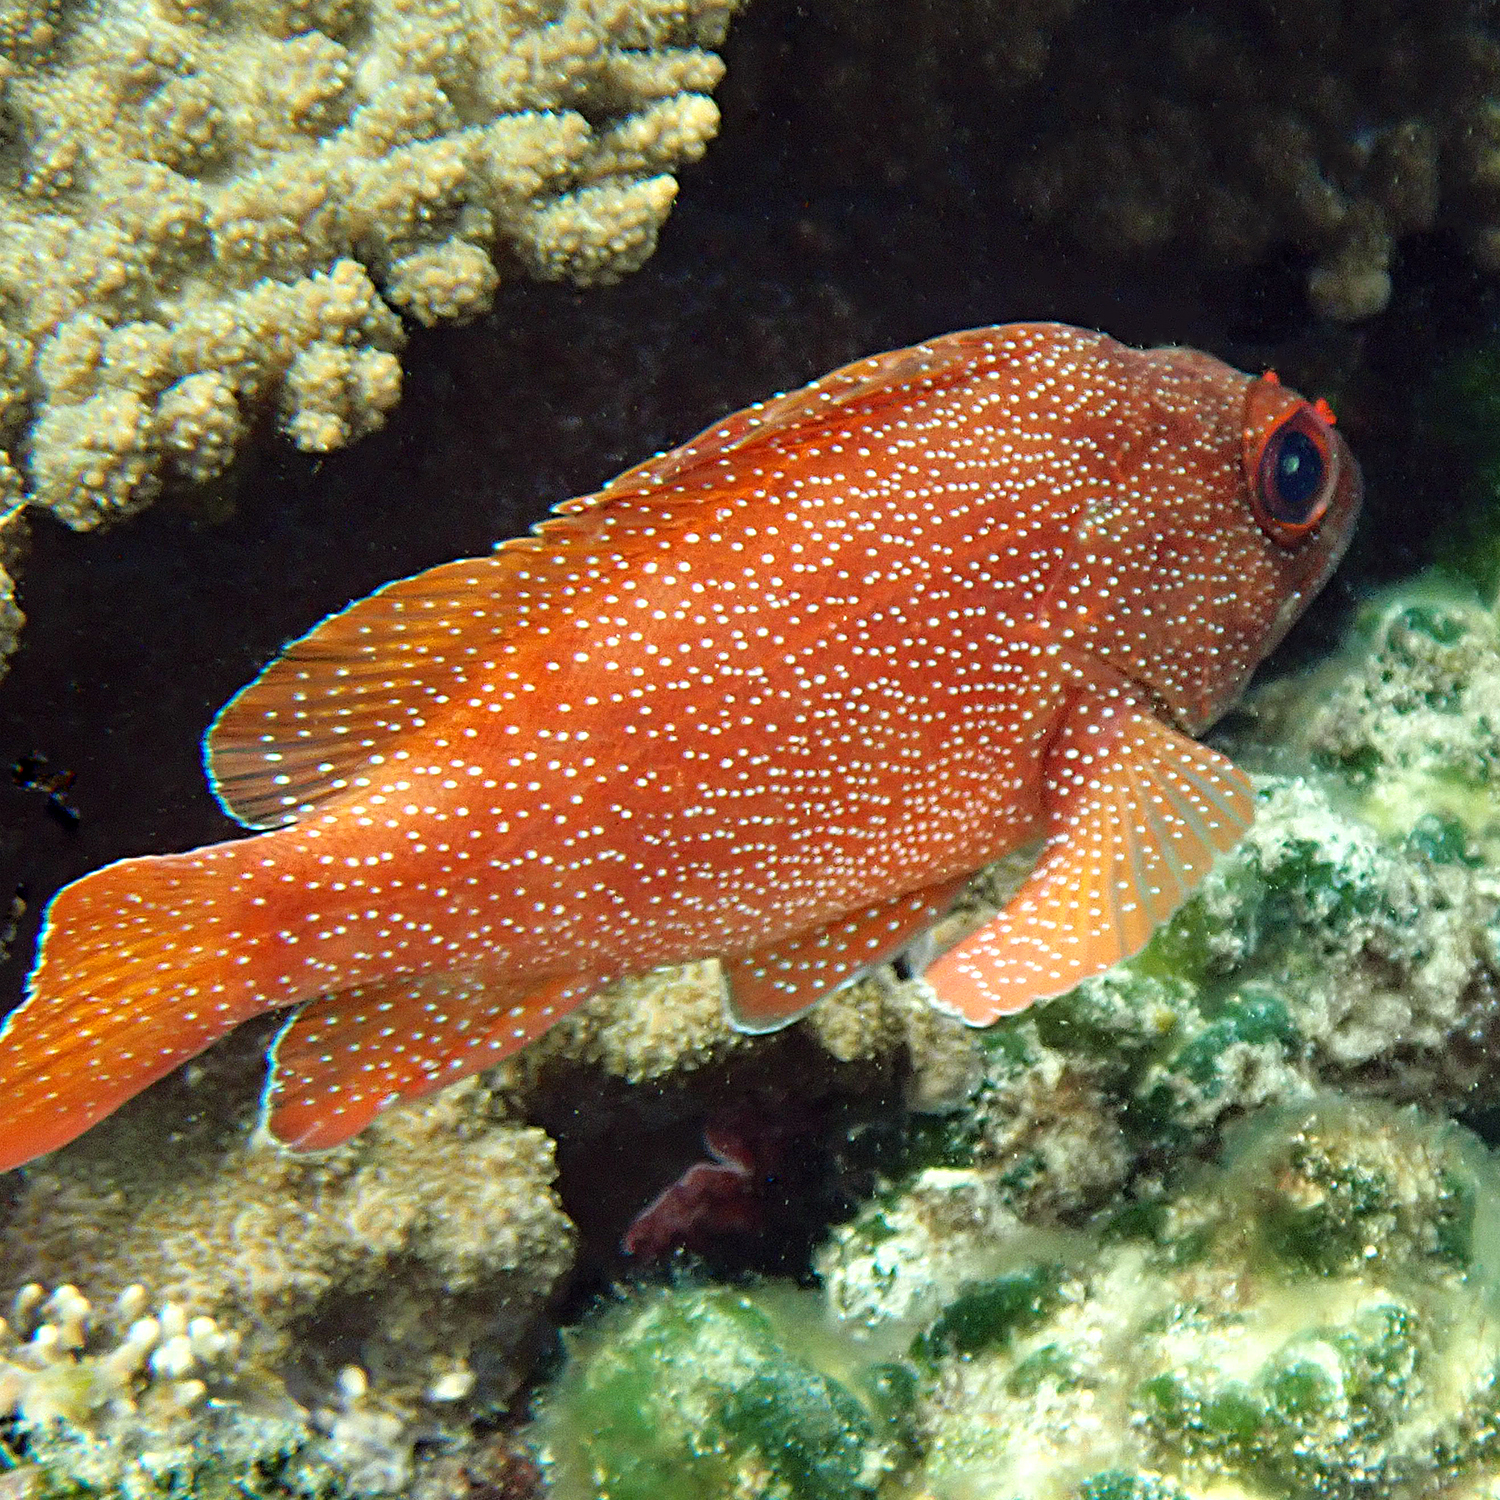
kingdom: Animalia
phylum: Chordata
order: Perciformes
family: Serranidae
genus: Trachypoma
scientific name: Trachypoma macracanthus
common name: Toadstool grouper
